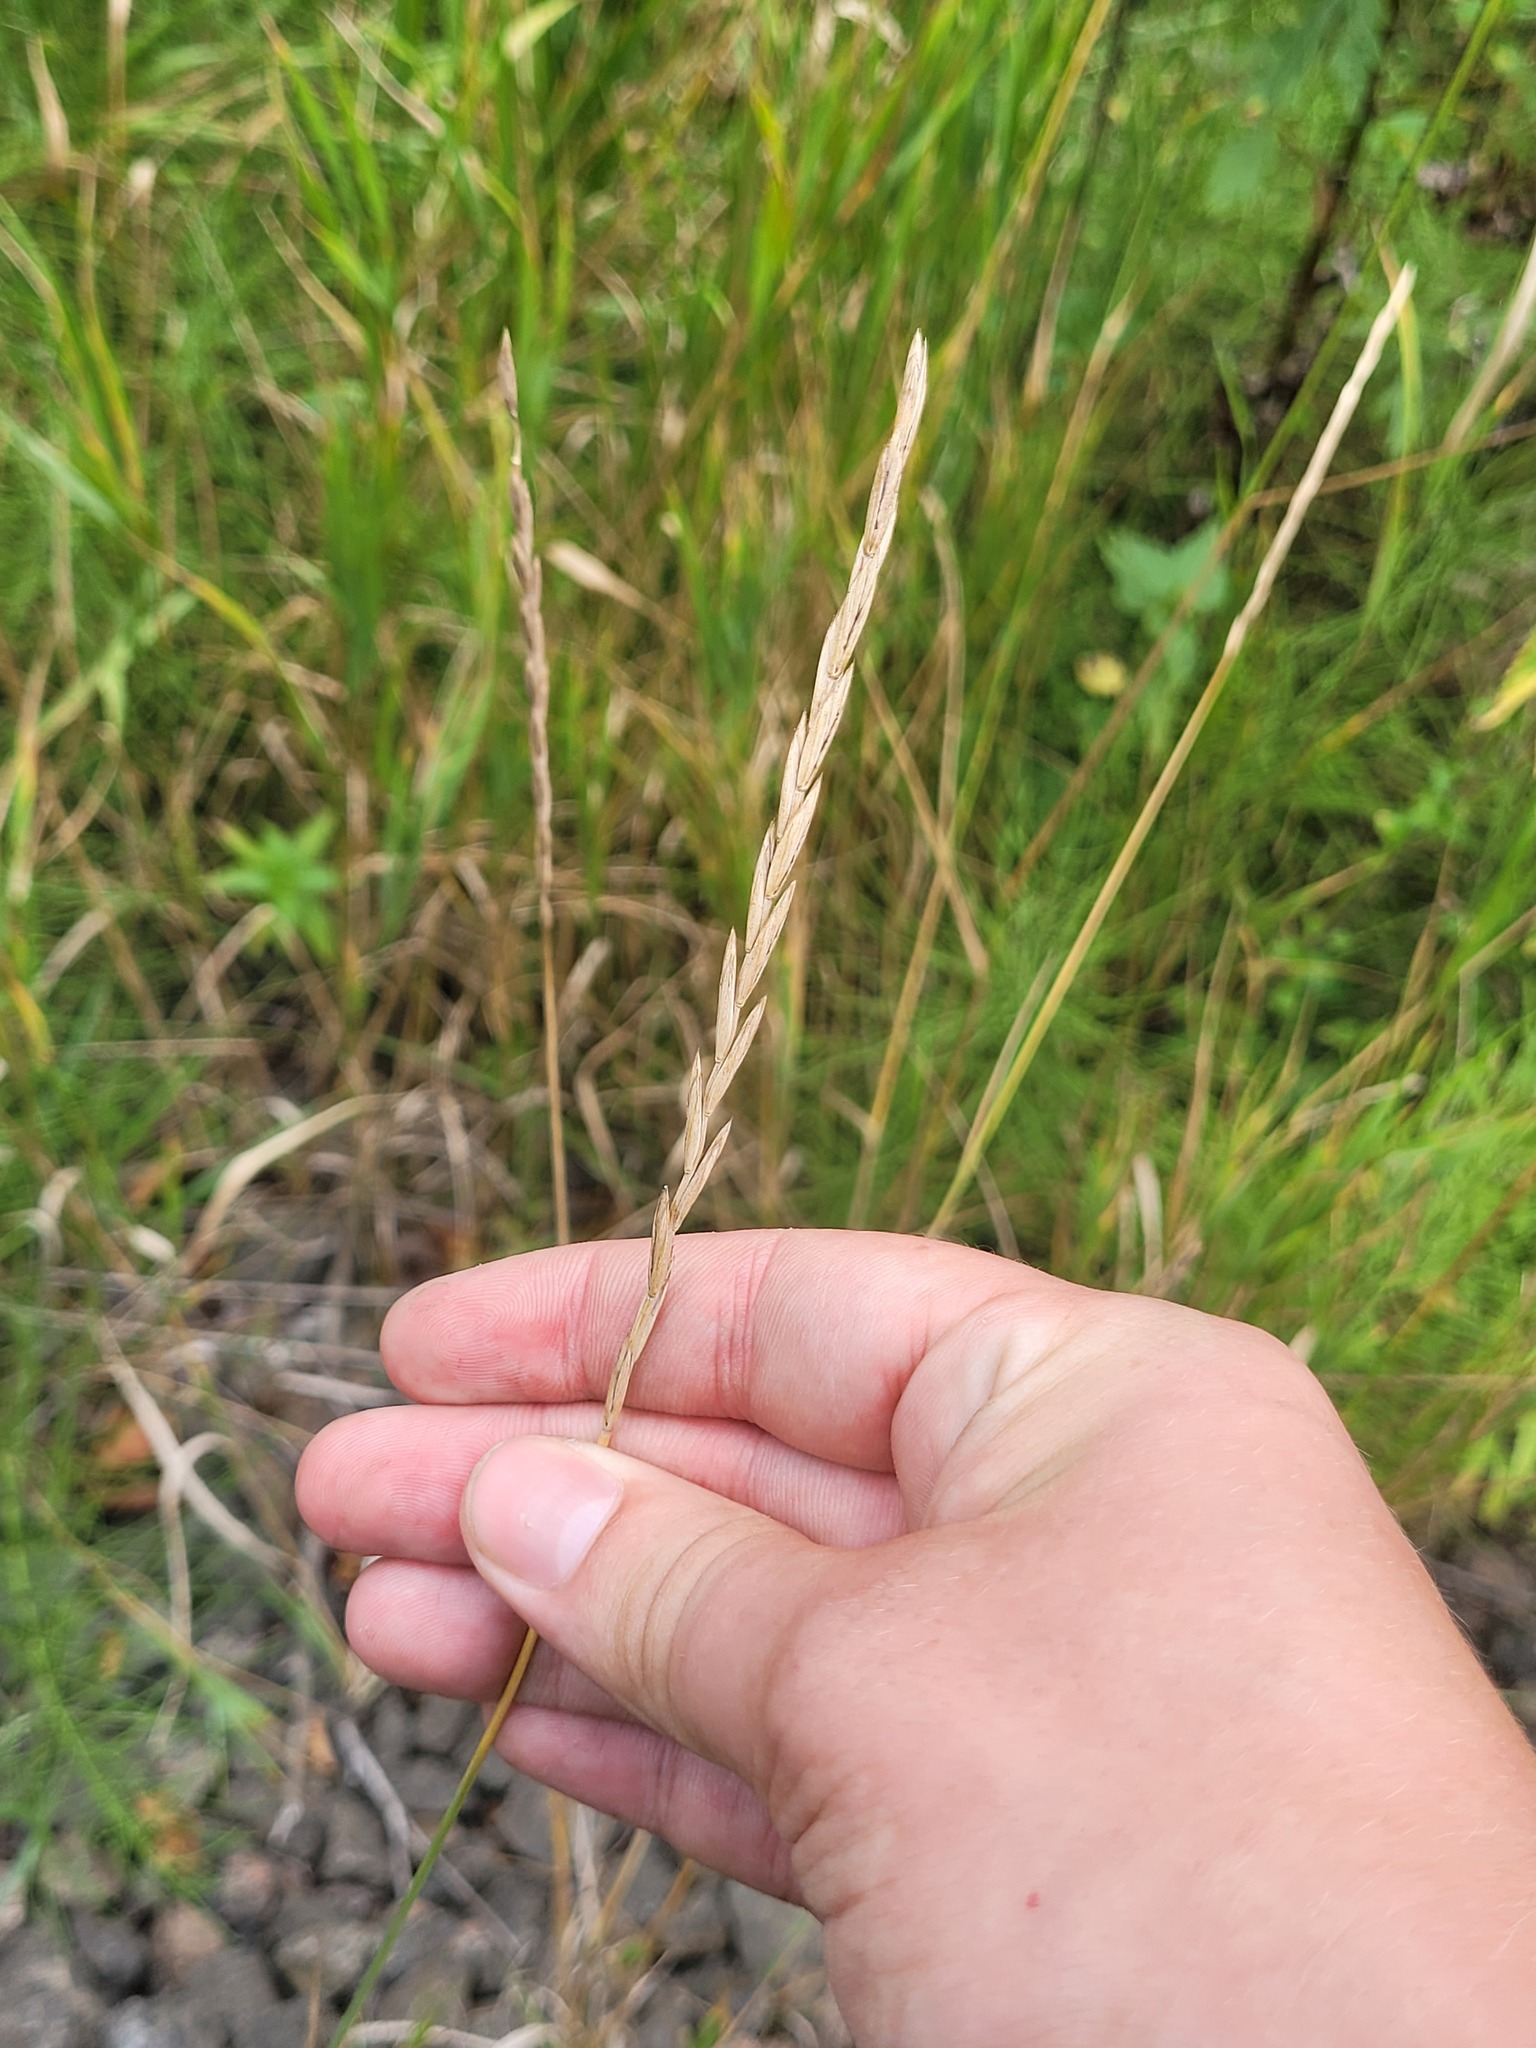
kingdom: Plantae
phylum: Tracheophyta
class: Liliopsida
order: Poales
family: Poaceae
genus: Elymus
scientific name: Elymus repens
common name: Quackgrass
